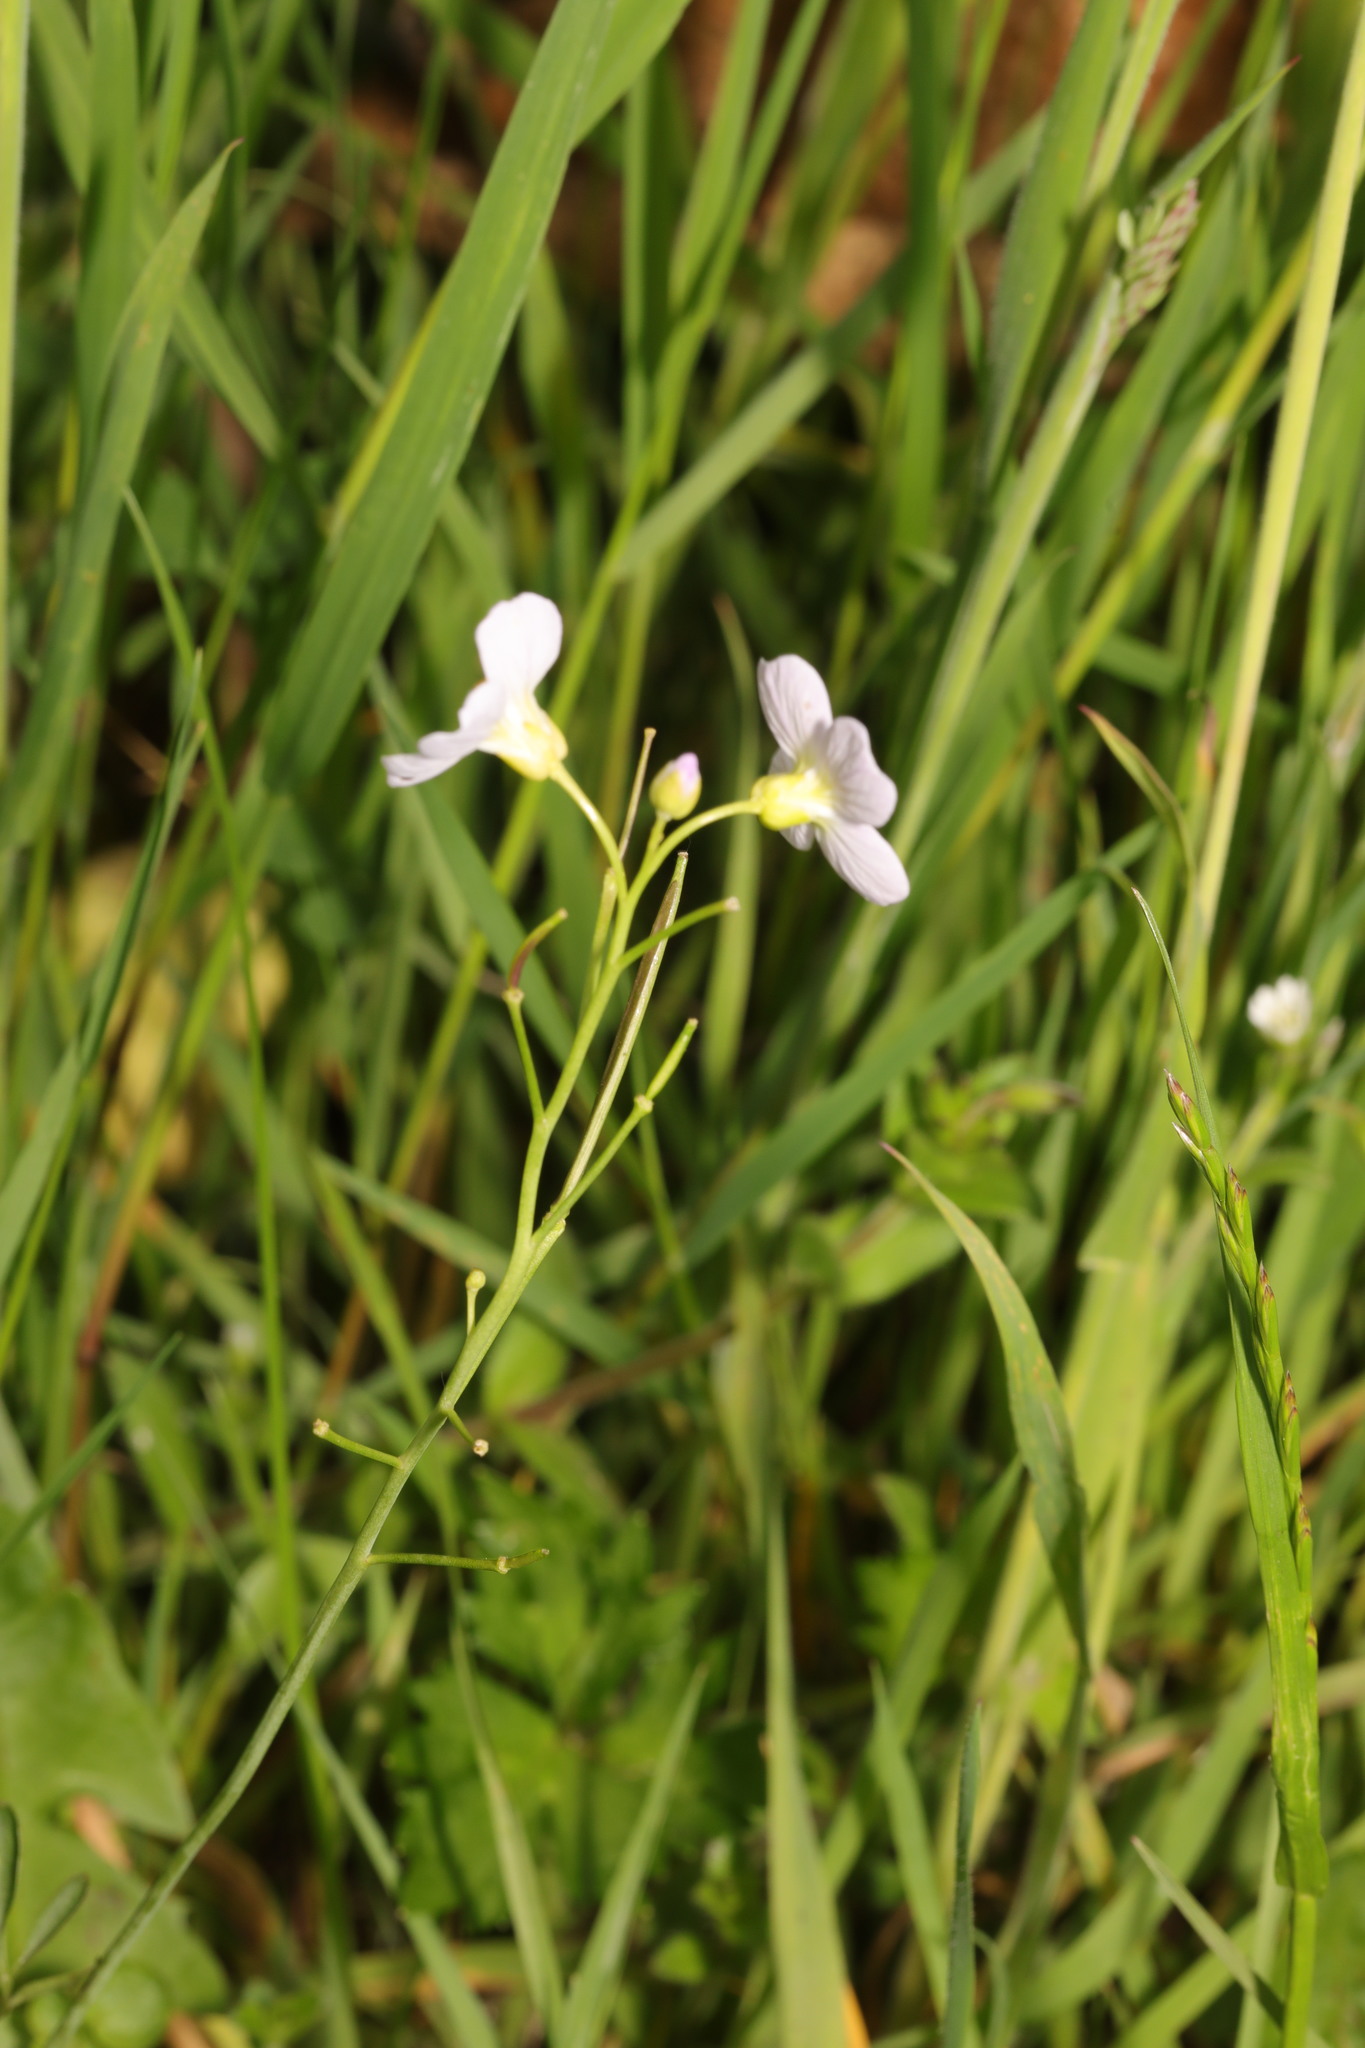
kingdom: Plantae
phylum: Tracheophyta
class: Magnoliopsida
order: Brassicales
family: Brassicaceae
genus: Cardamine
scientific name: Cardamine pratensis
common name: Cuckoo flower
